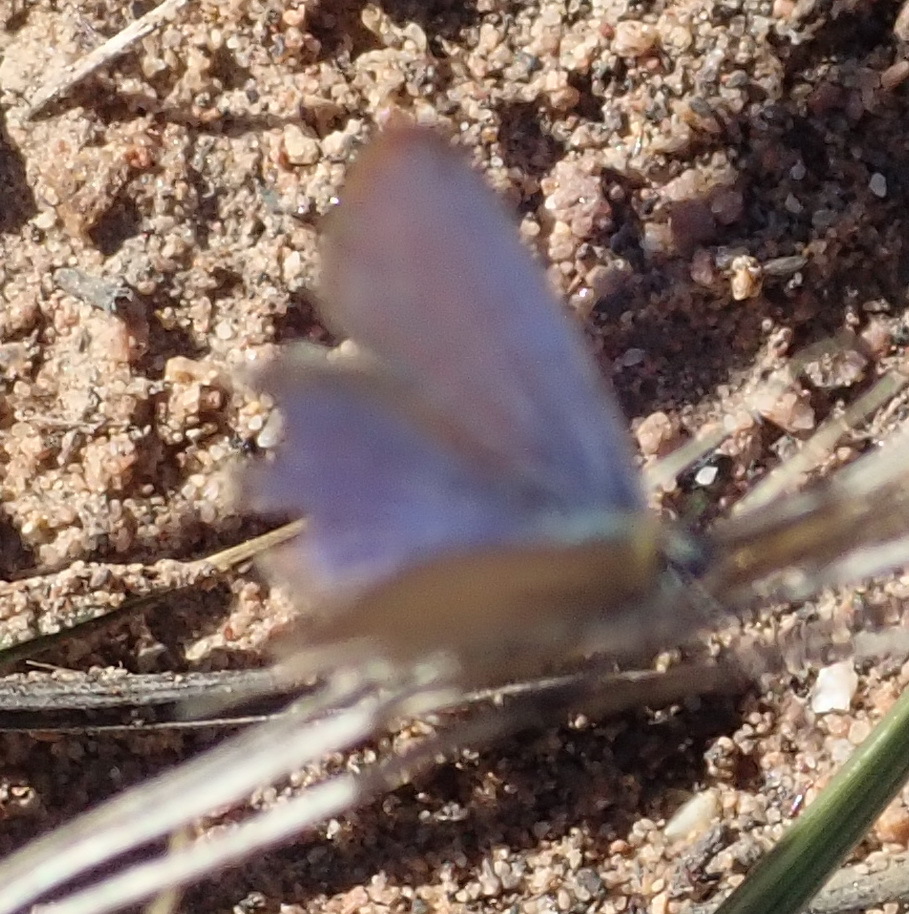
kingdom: Animalia
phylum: Arthropoda
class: Insecta
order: Lepidoptera
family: Lycaenidae
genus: Cupido
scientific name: Cupido cissus
